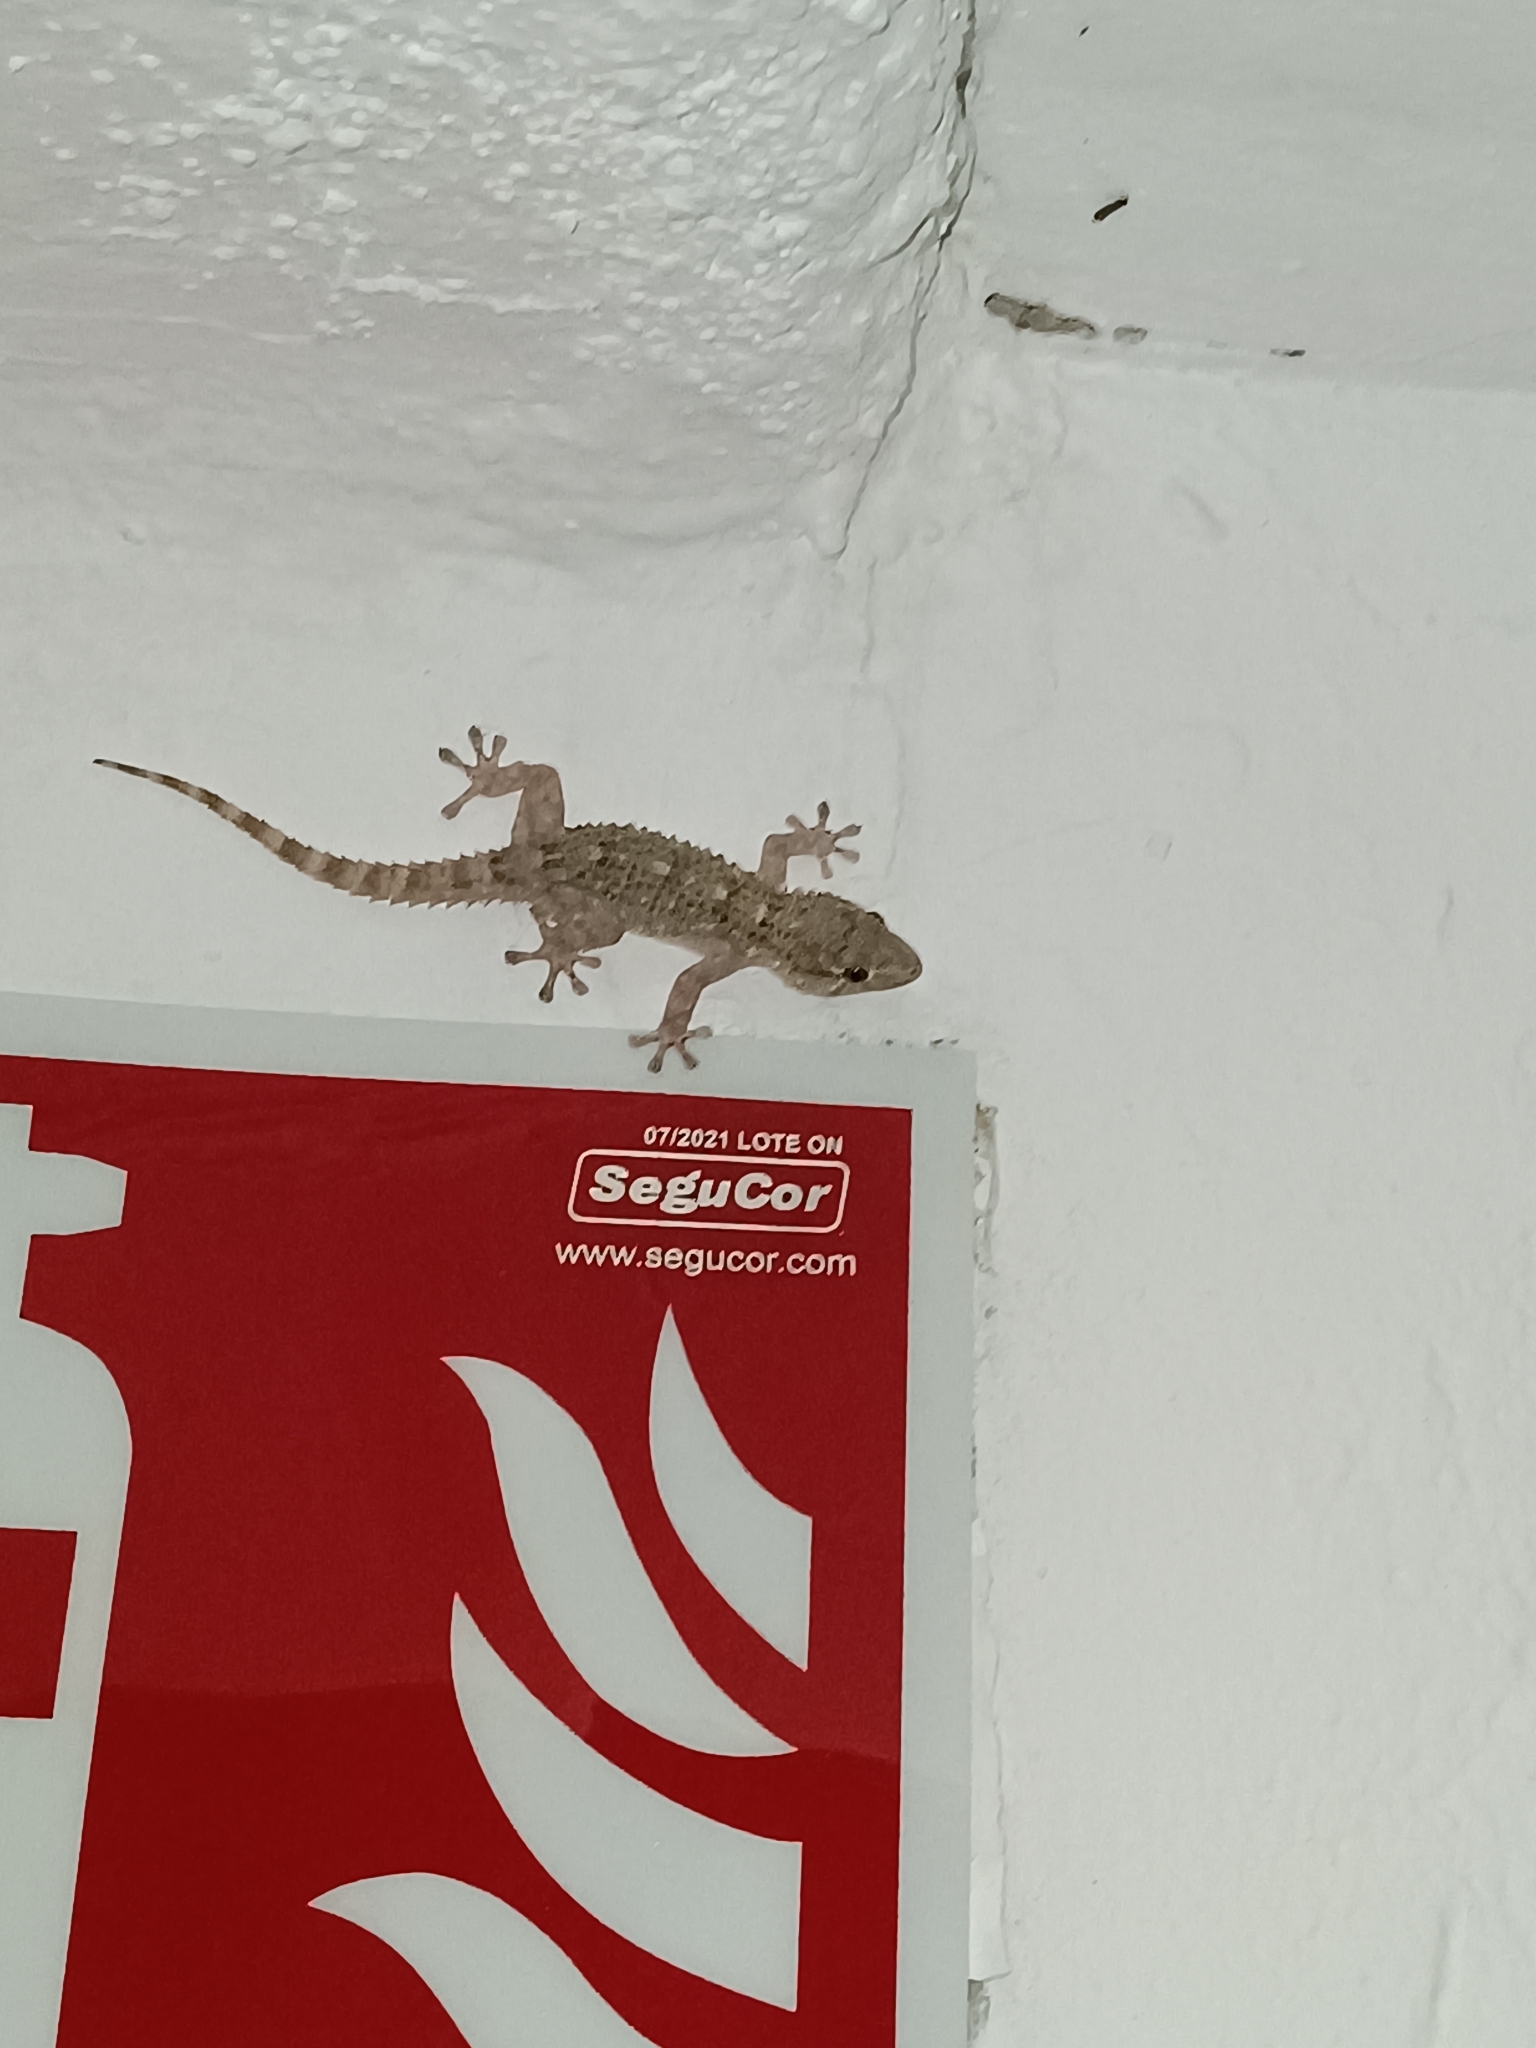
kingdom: Animalia
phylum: Chordata
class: Squamata
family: Phyllodactylidae
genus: Tarentola
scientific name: Tarentola mauritanica
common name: Moorish gecko
